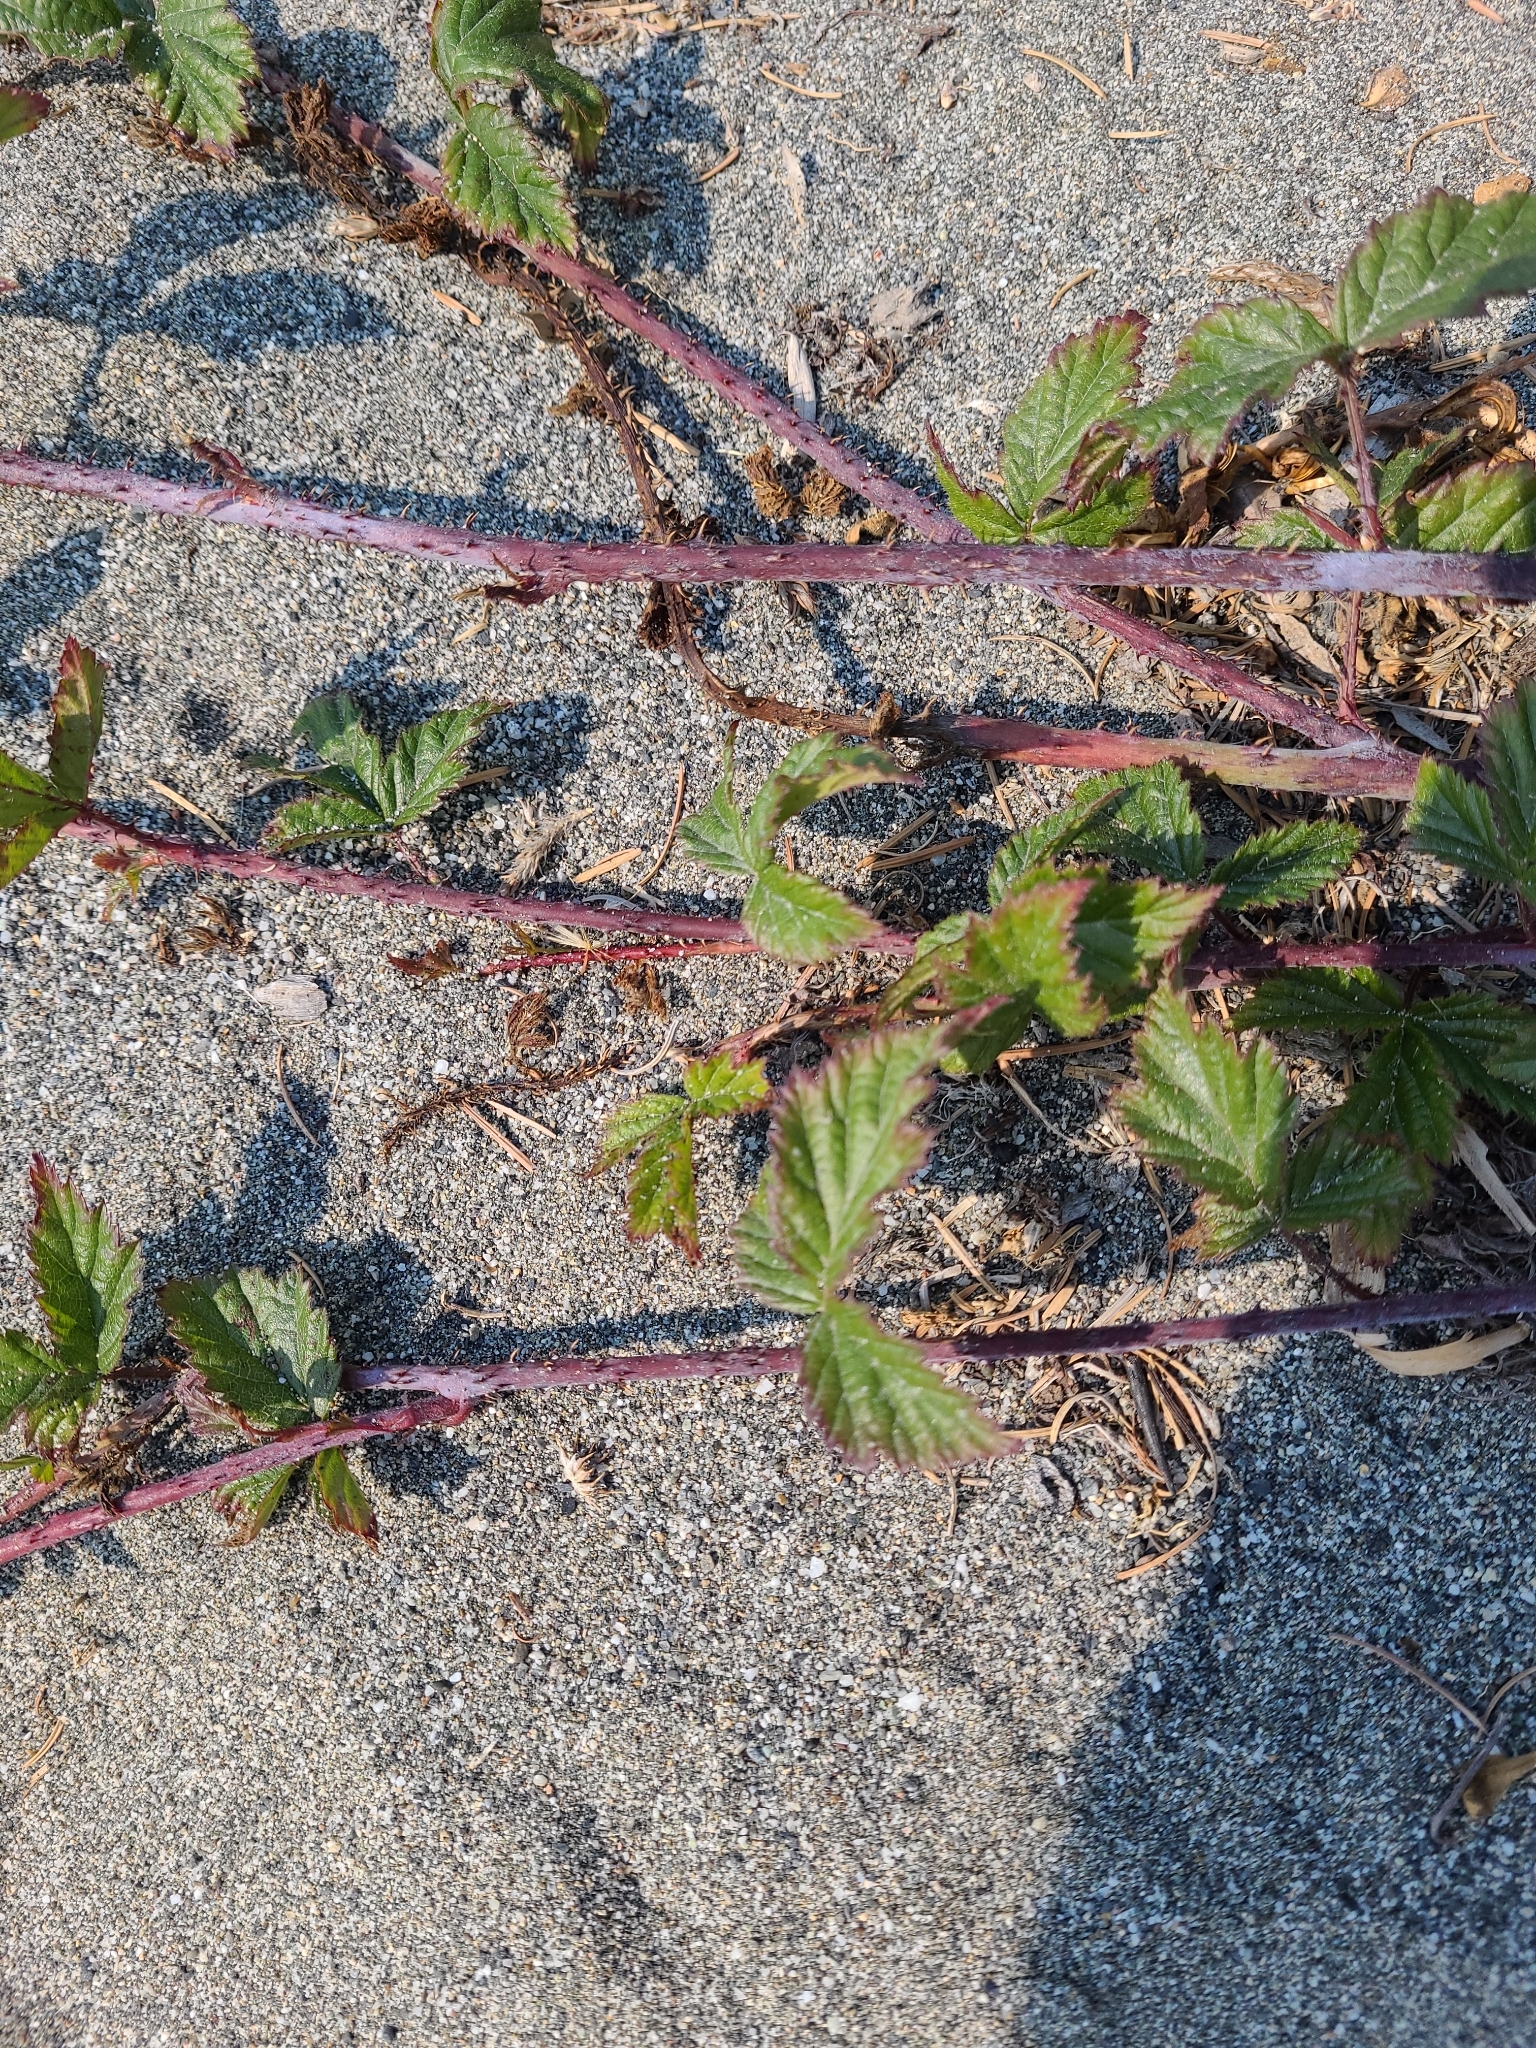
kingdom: Plantae
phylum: Tracheophyta
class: Magnoliopsida
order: Rosales
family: Rosaceae
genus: Rubus
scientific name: Rubus ursinus
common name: Pacific blackberry
